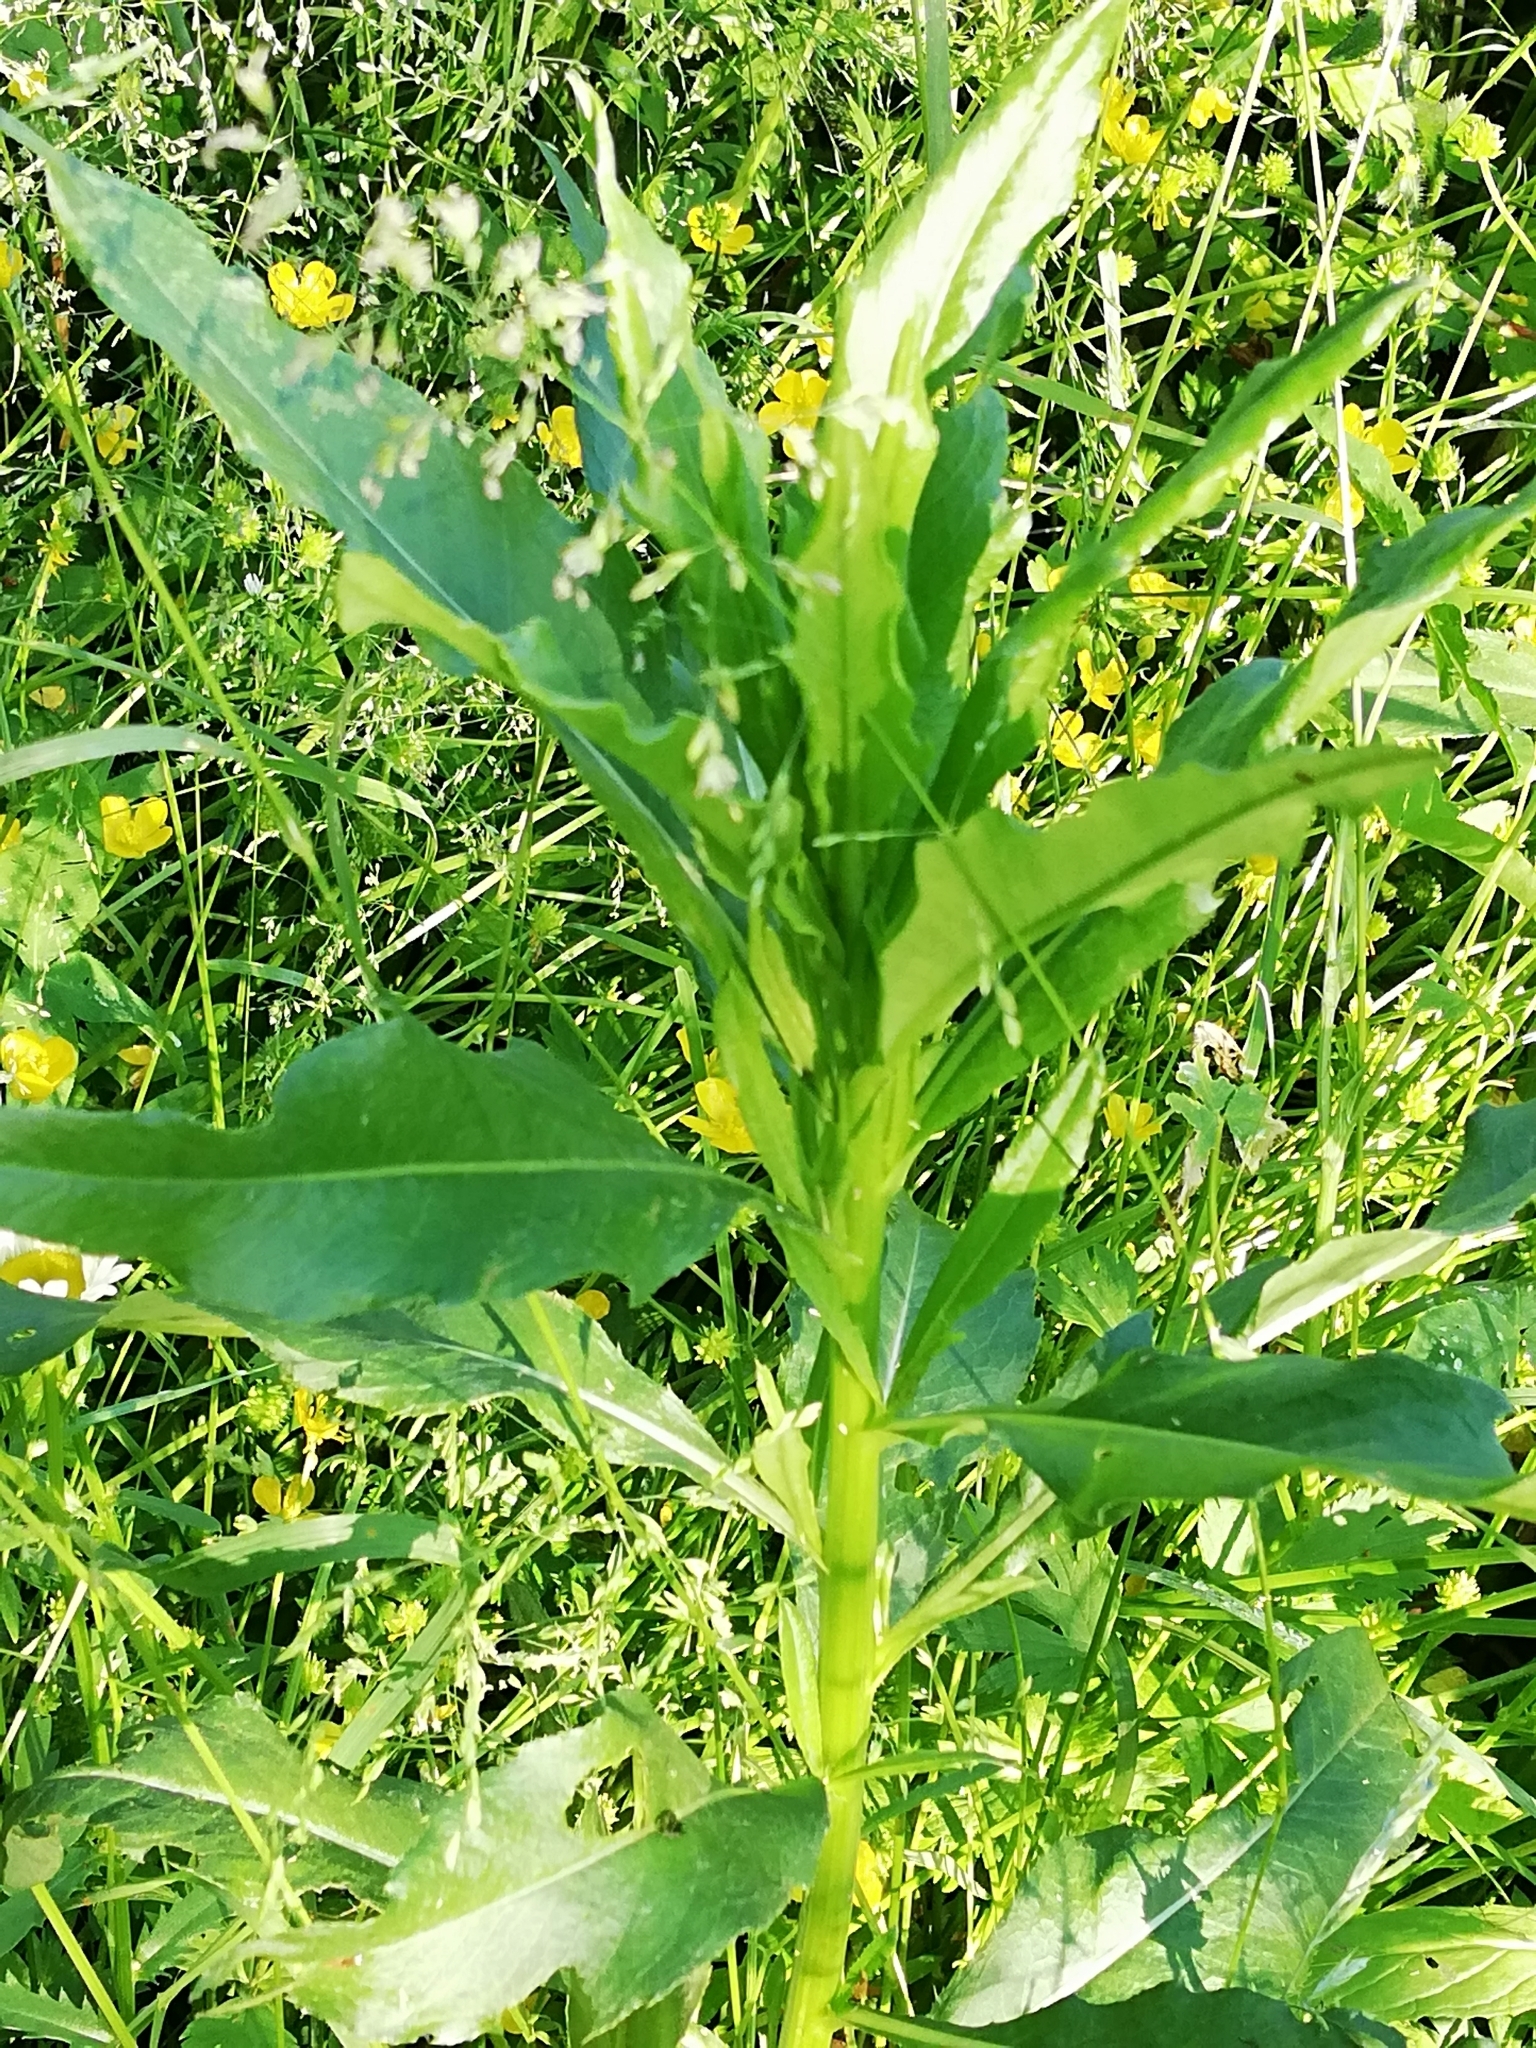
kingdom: Plantae
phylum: Tracheophyta
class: Magnoliopsida
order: Asterales
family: Asteraceae
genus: Cirsium
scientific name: Cirsium arvense
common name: Creeping thistle
